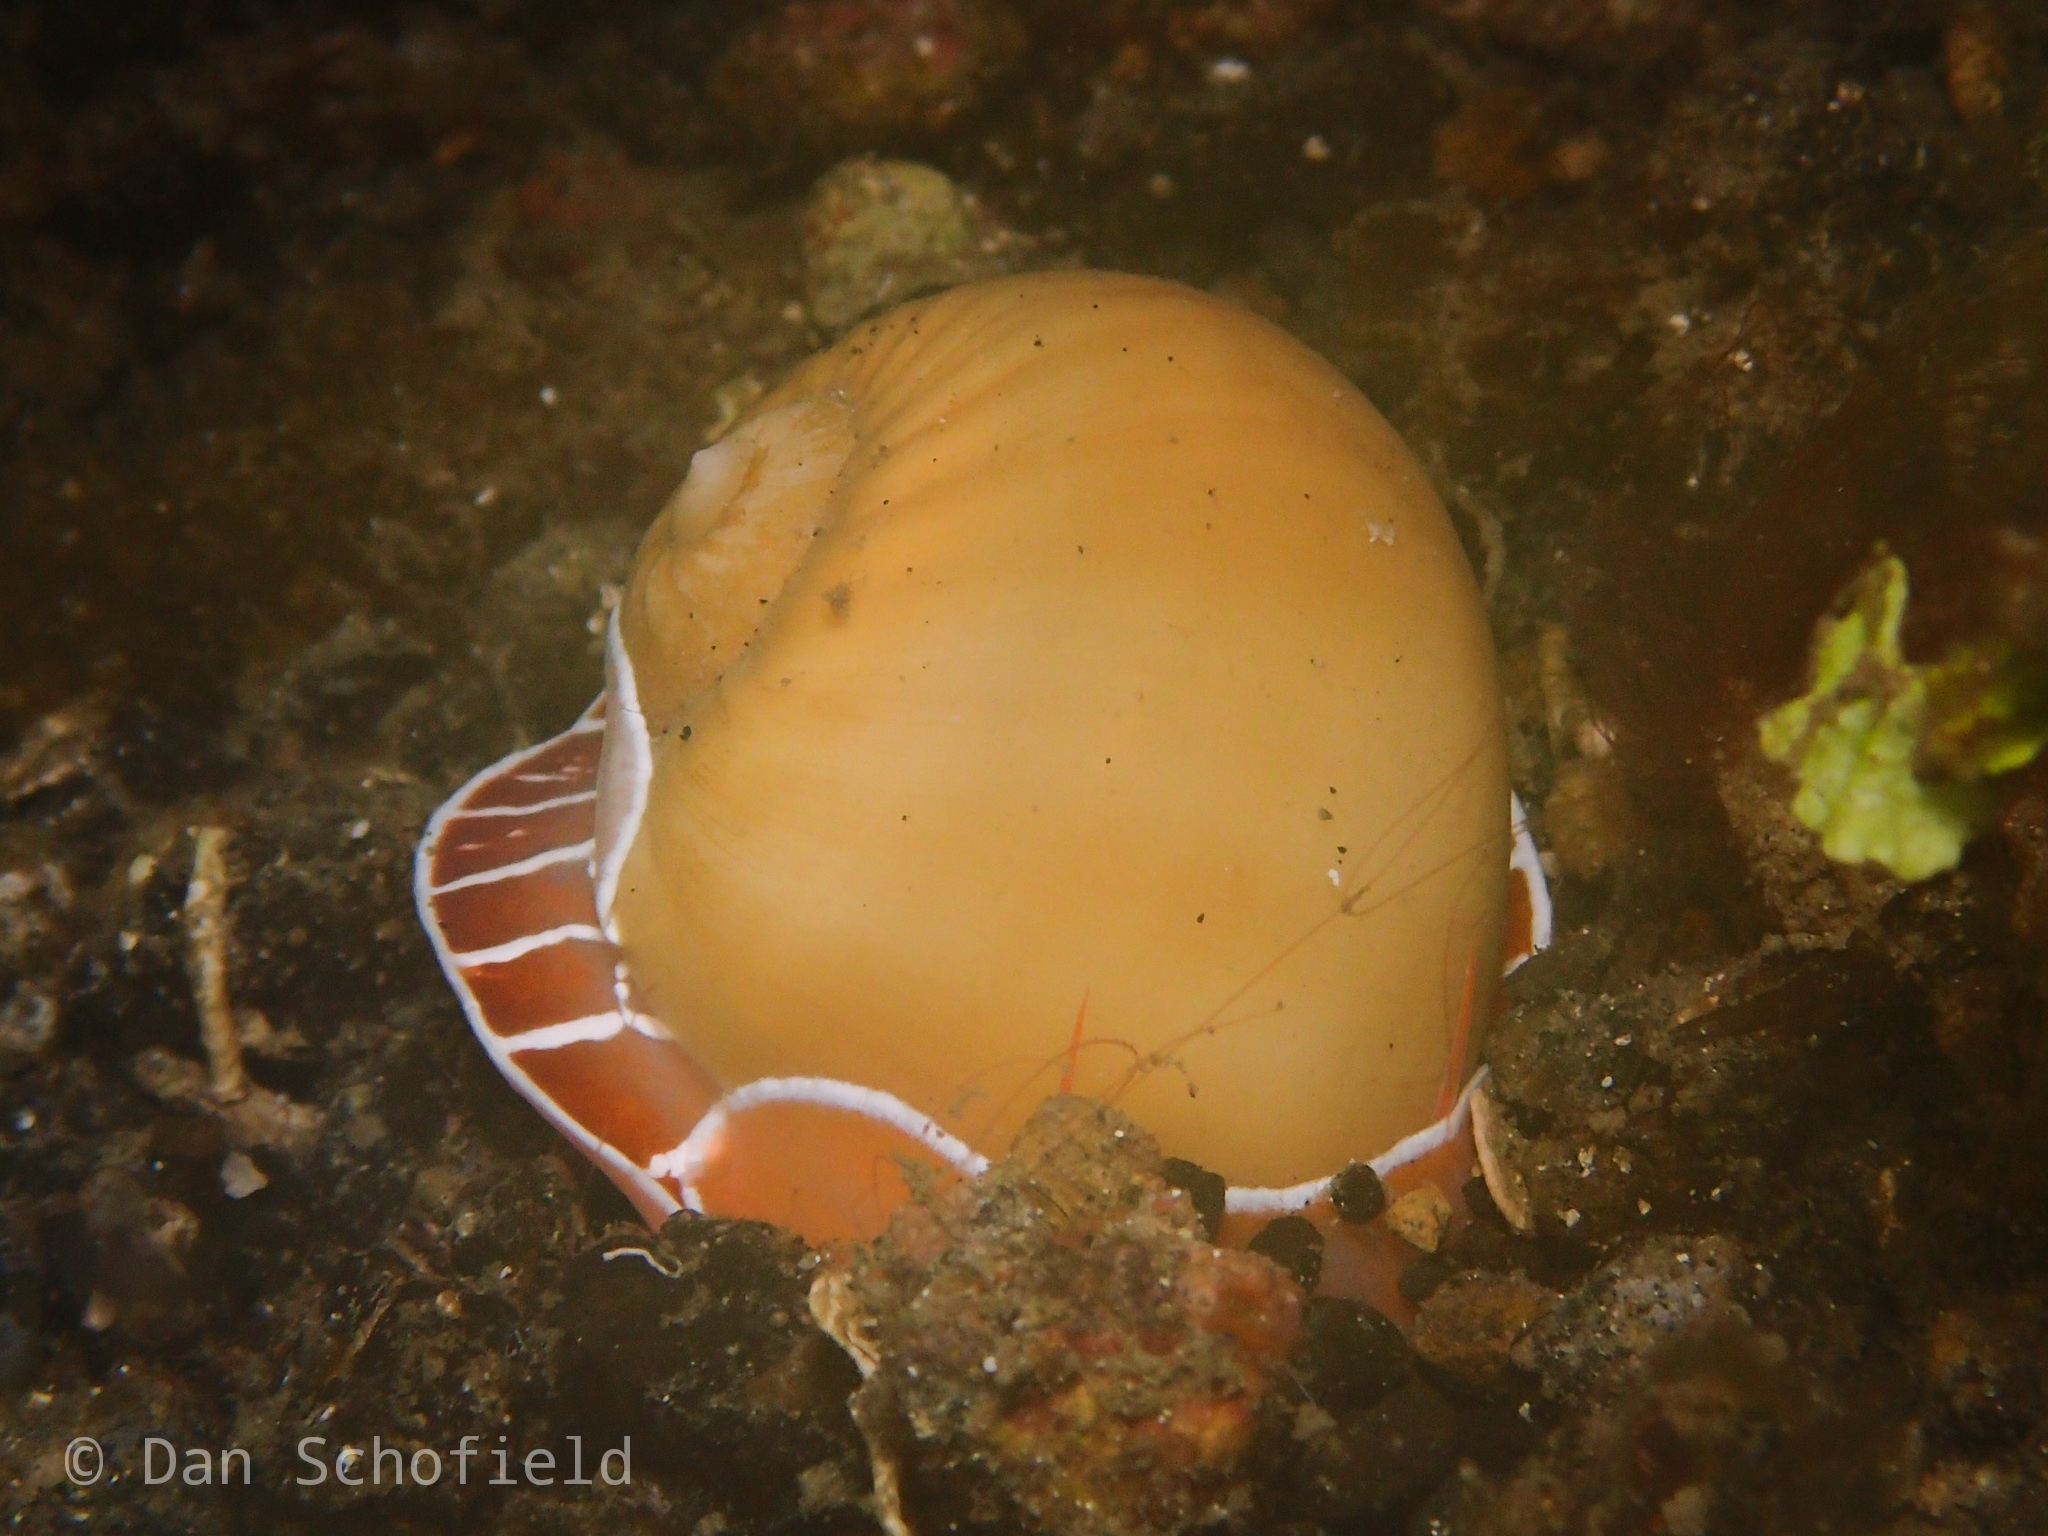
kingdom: Animalia
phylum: Mollusca
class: Gastropoda
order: Littorinimorpha
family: Naticidae
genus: Naticarius
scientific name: Naticarius orientalis
